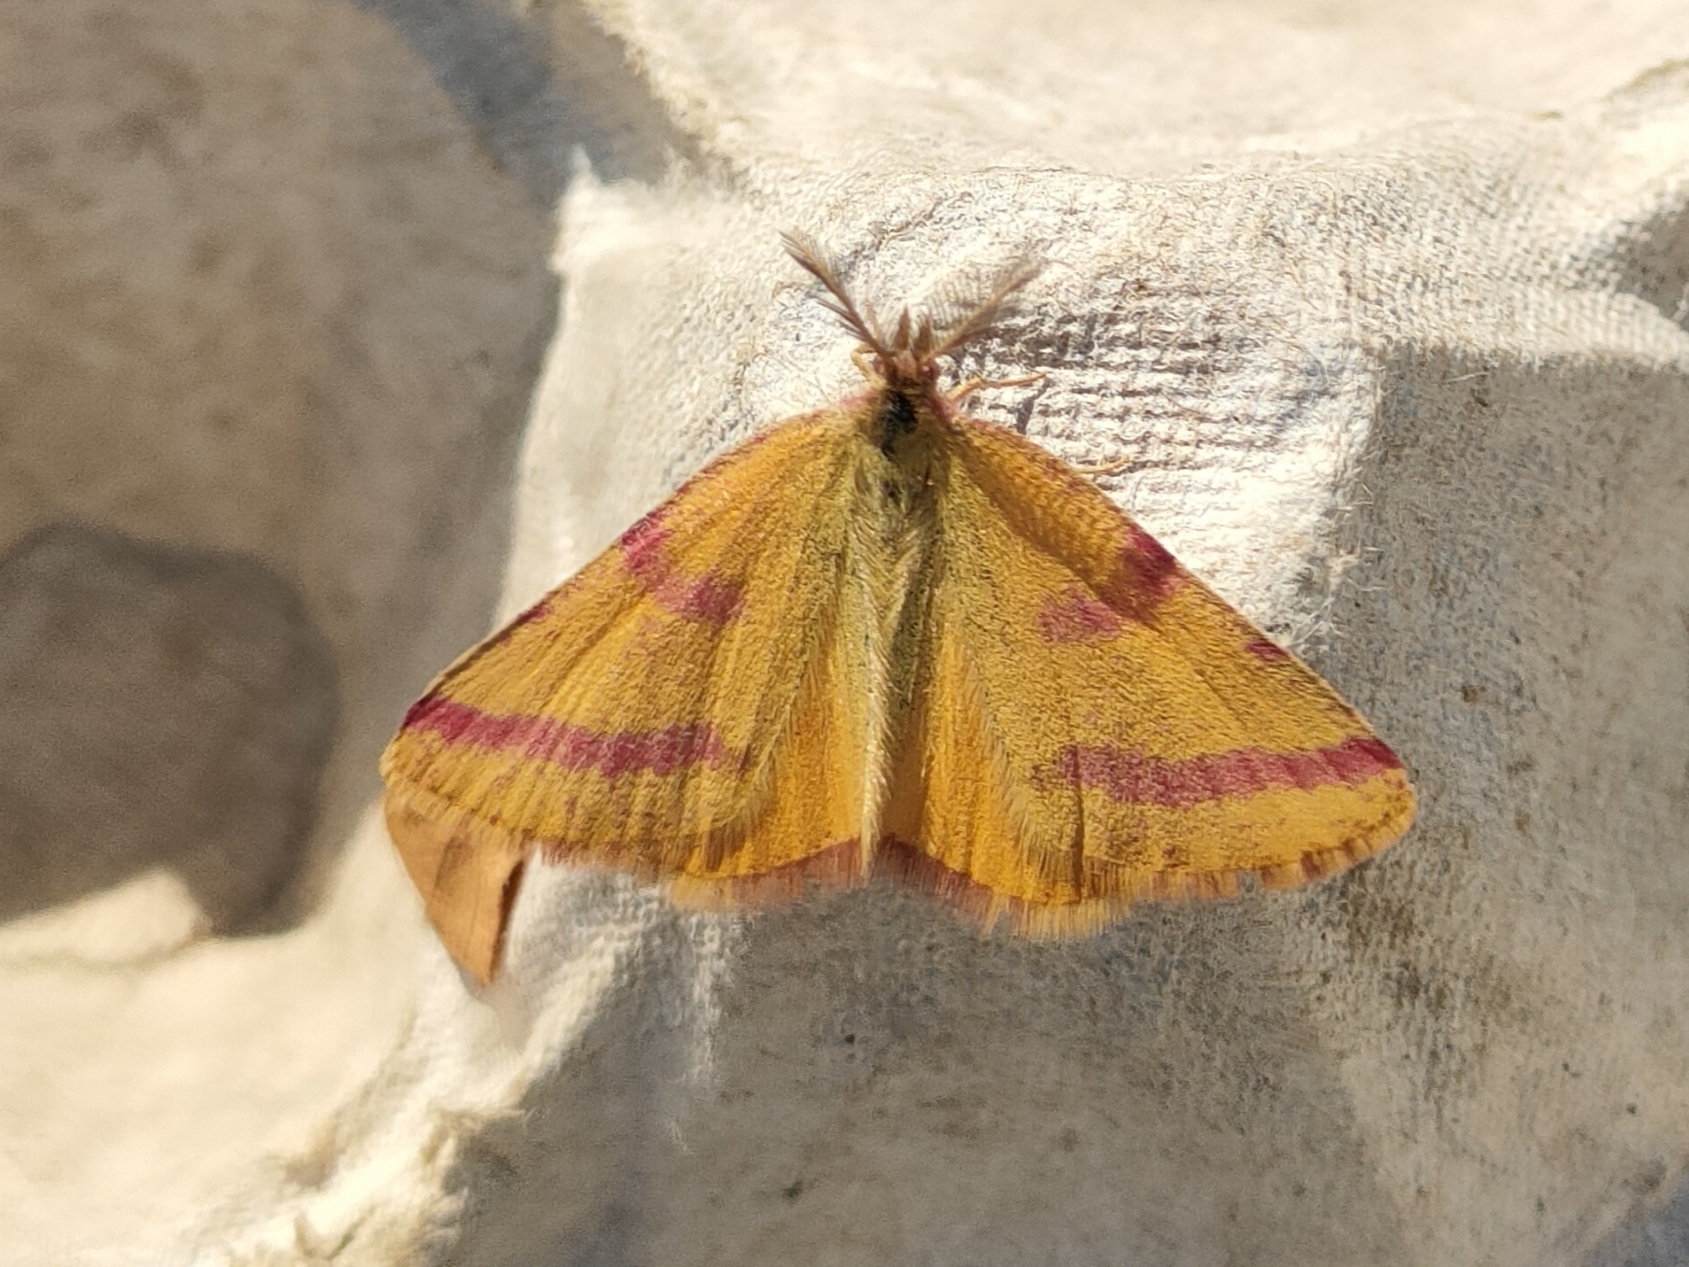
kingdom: Animalia
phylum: Arthropoda
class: Insecta
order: Lepidoptera
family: Geometridae
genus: Lythria
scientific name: Lythria purpuraria
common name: Purple-barred yellow
